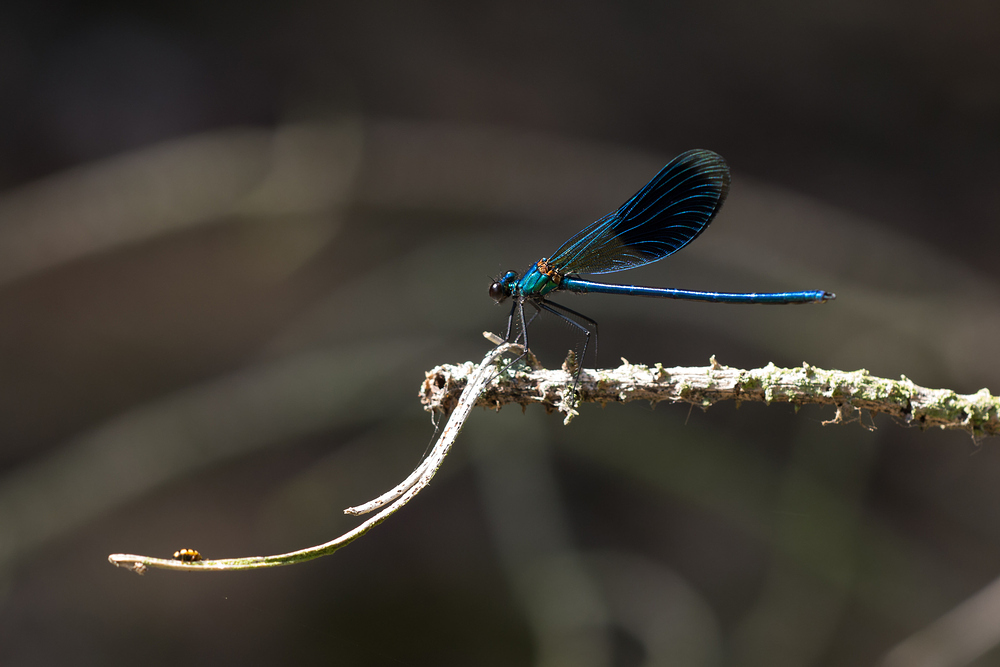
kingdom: Animalia
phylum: Arthropoda
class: Insecta
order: Odonata
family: Calopterygidae
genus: Calopteryx
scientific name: Calopteryx splendens
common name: Banded demoiselle
